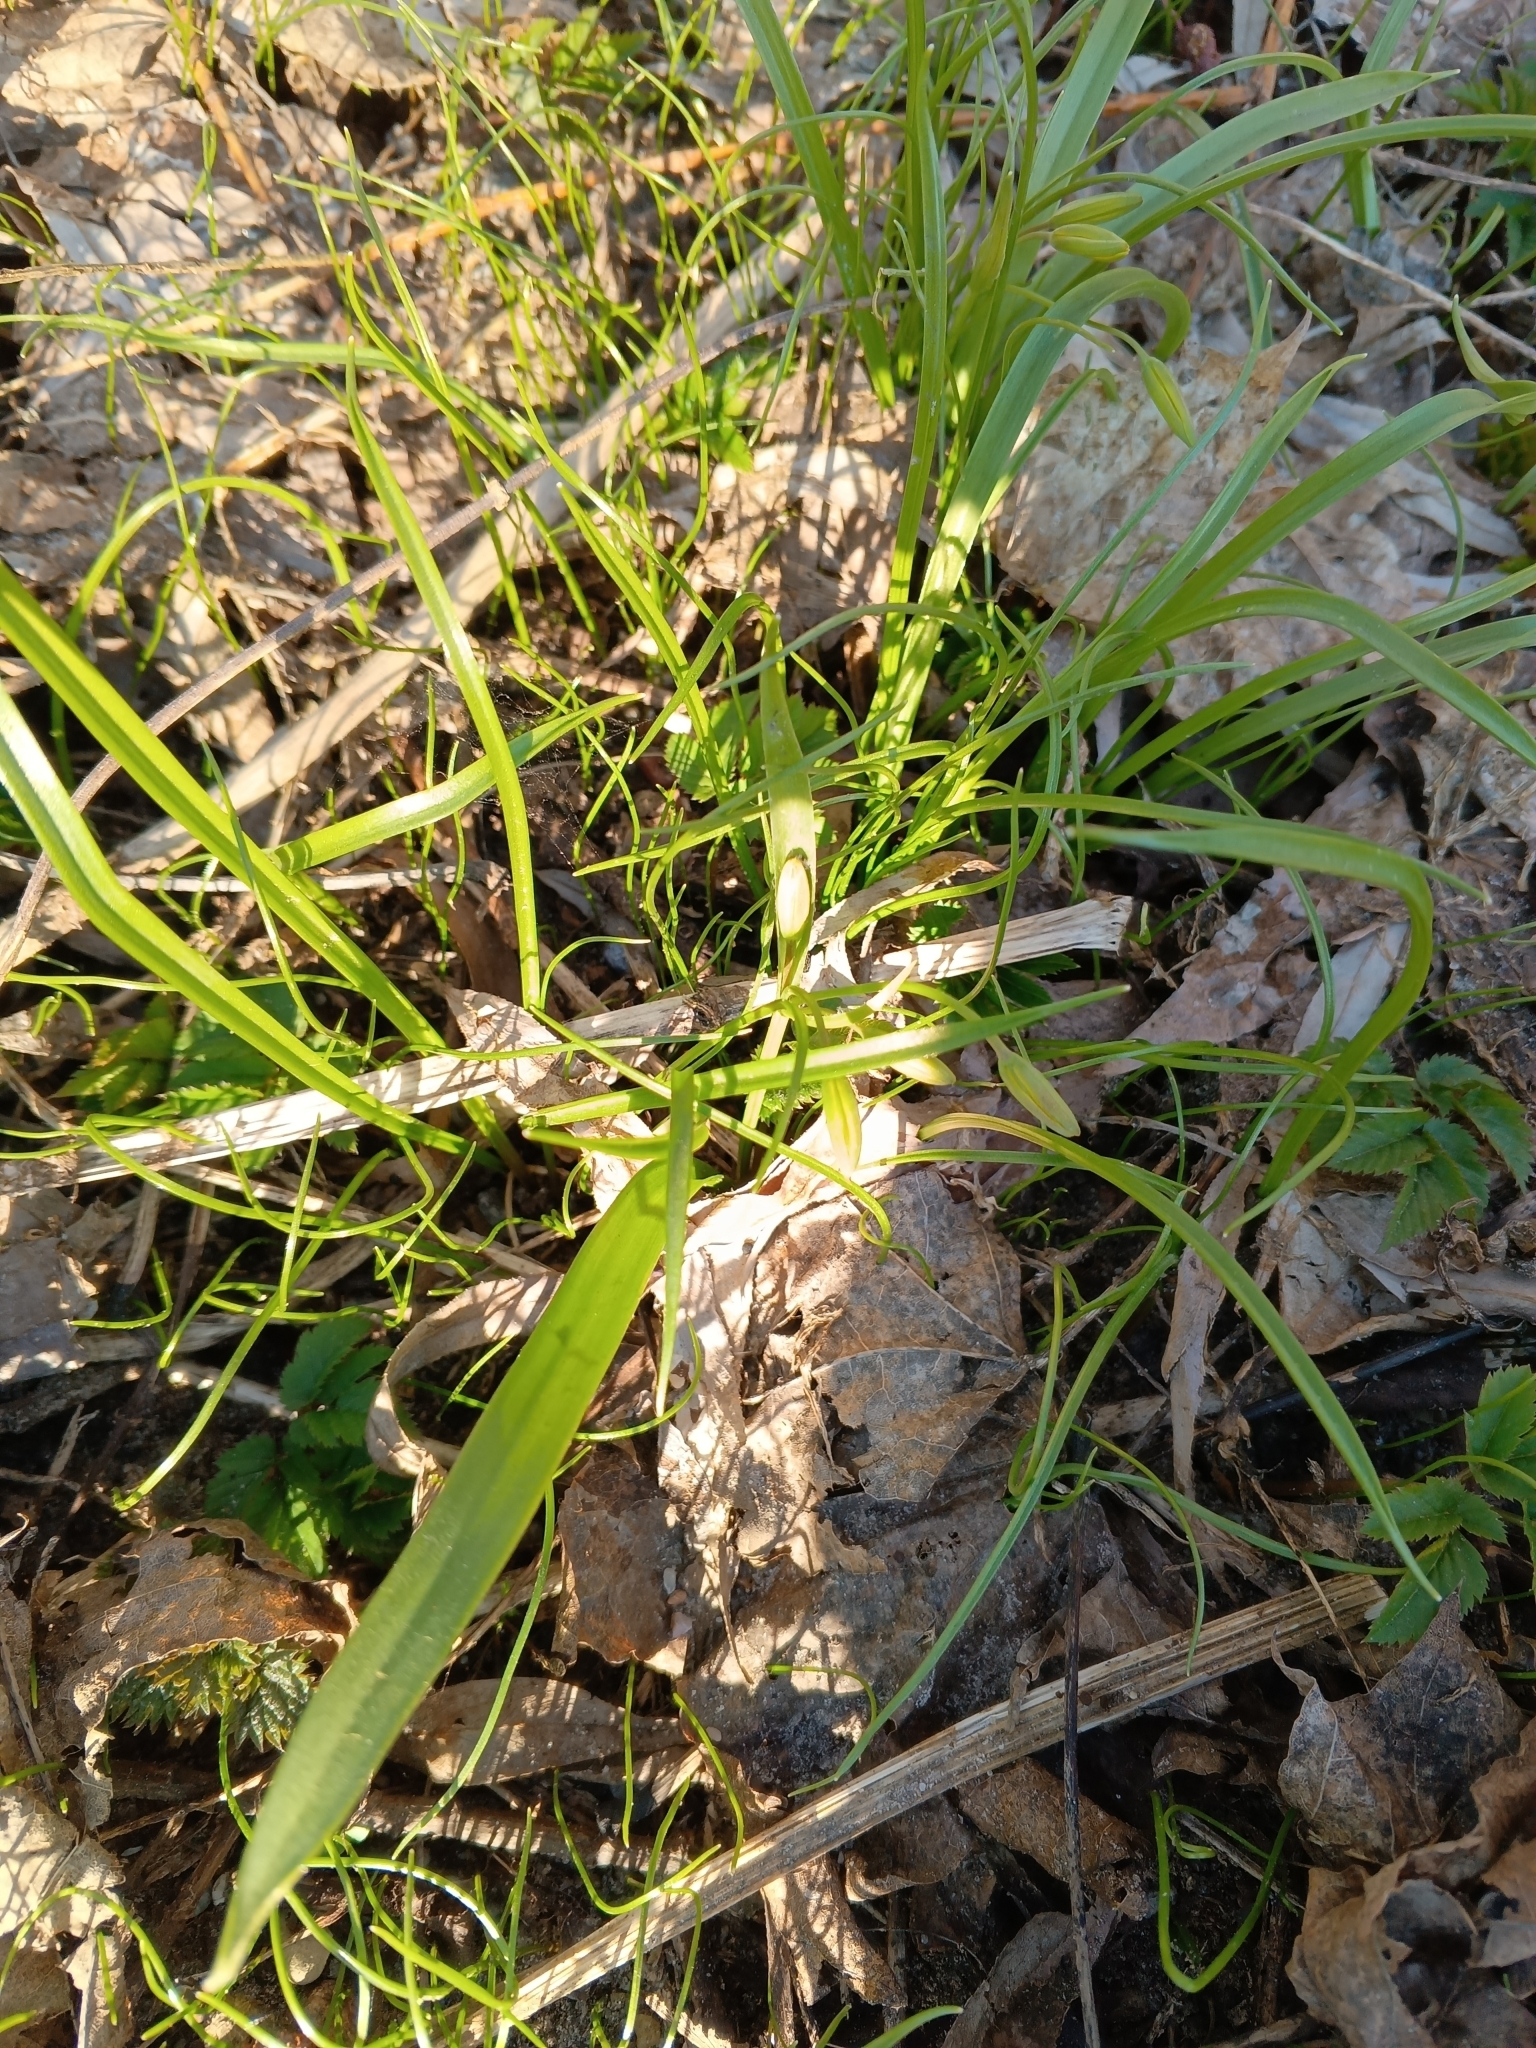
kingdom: Plantae
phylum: Tracheophyta
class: Liliopsida
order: Liliales
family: Liliaceae
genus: Gagea
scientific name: Gagea lutea
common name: Yellow star-of-bethlehem
